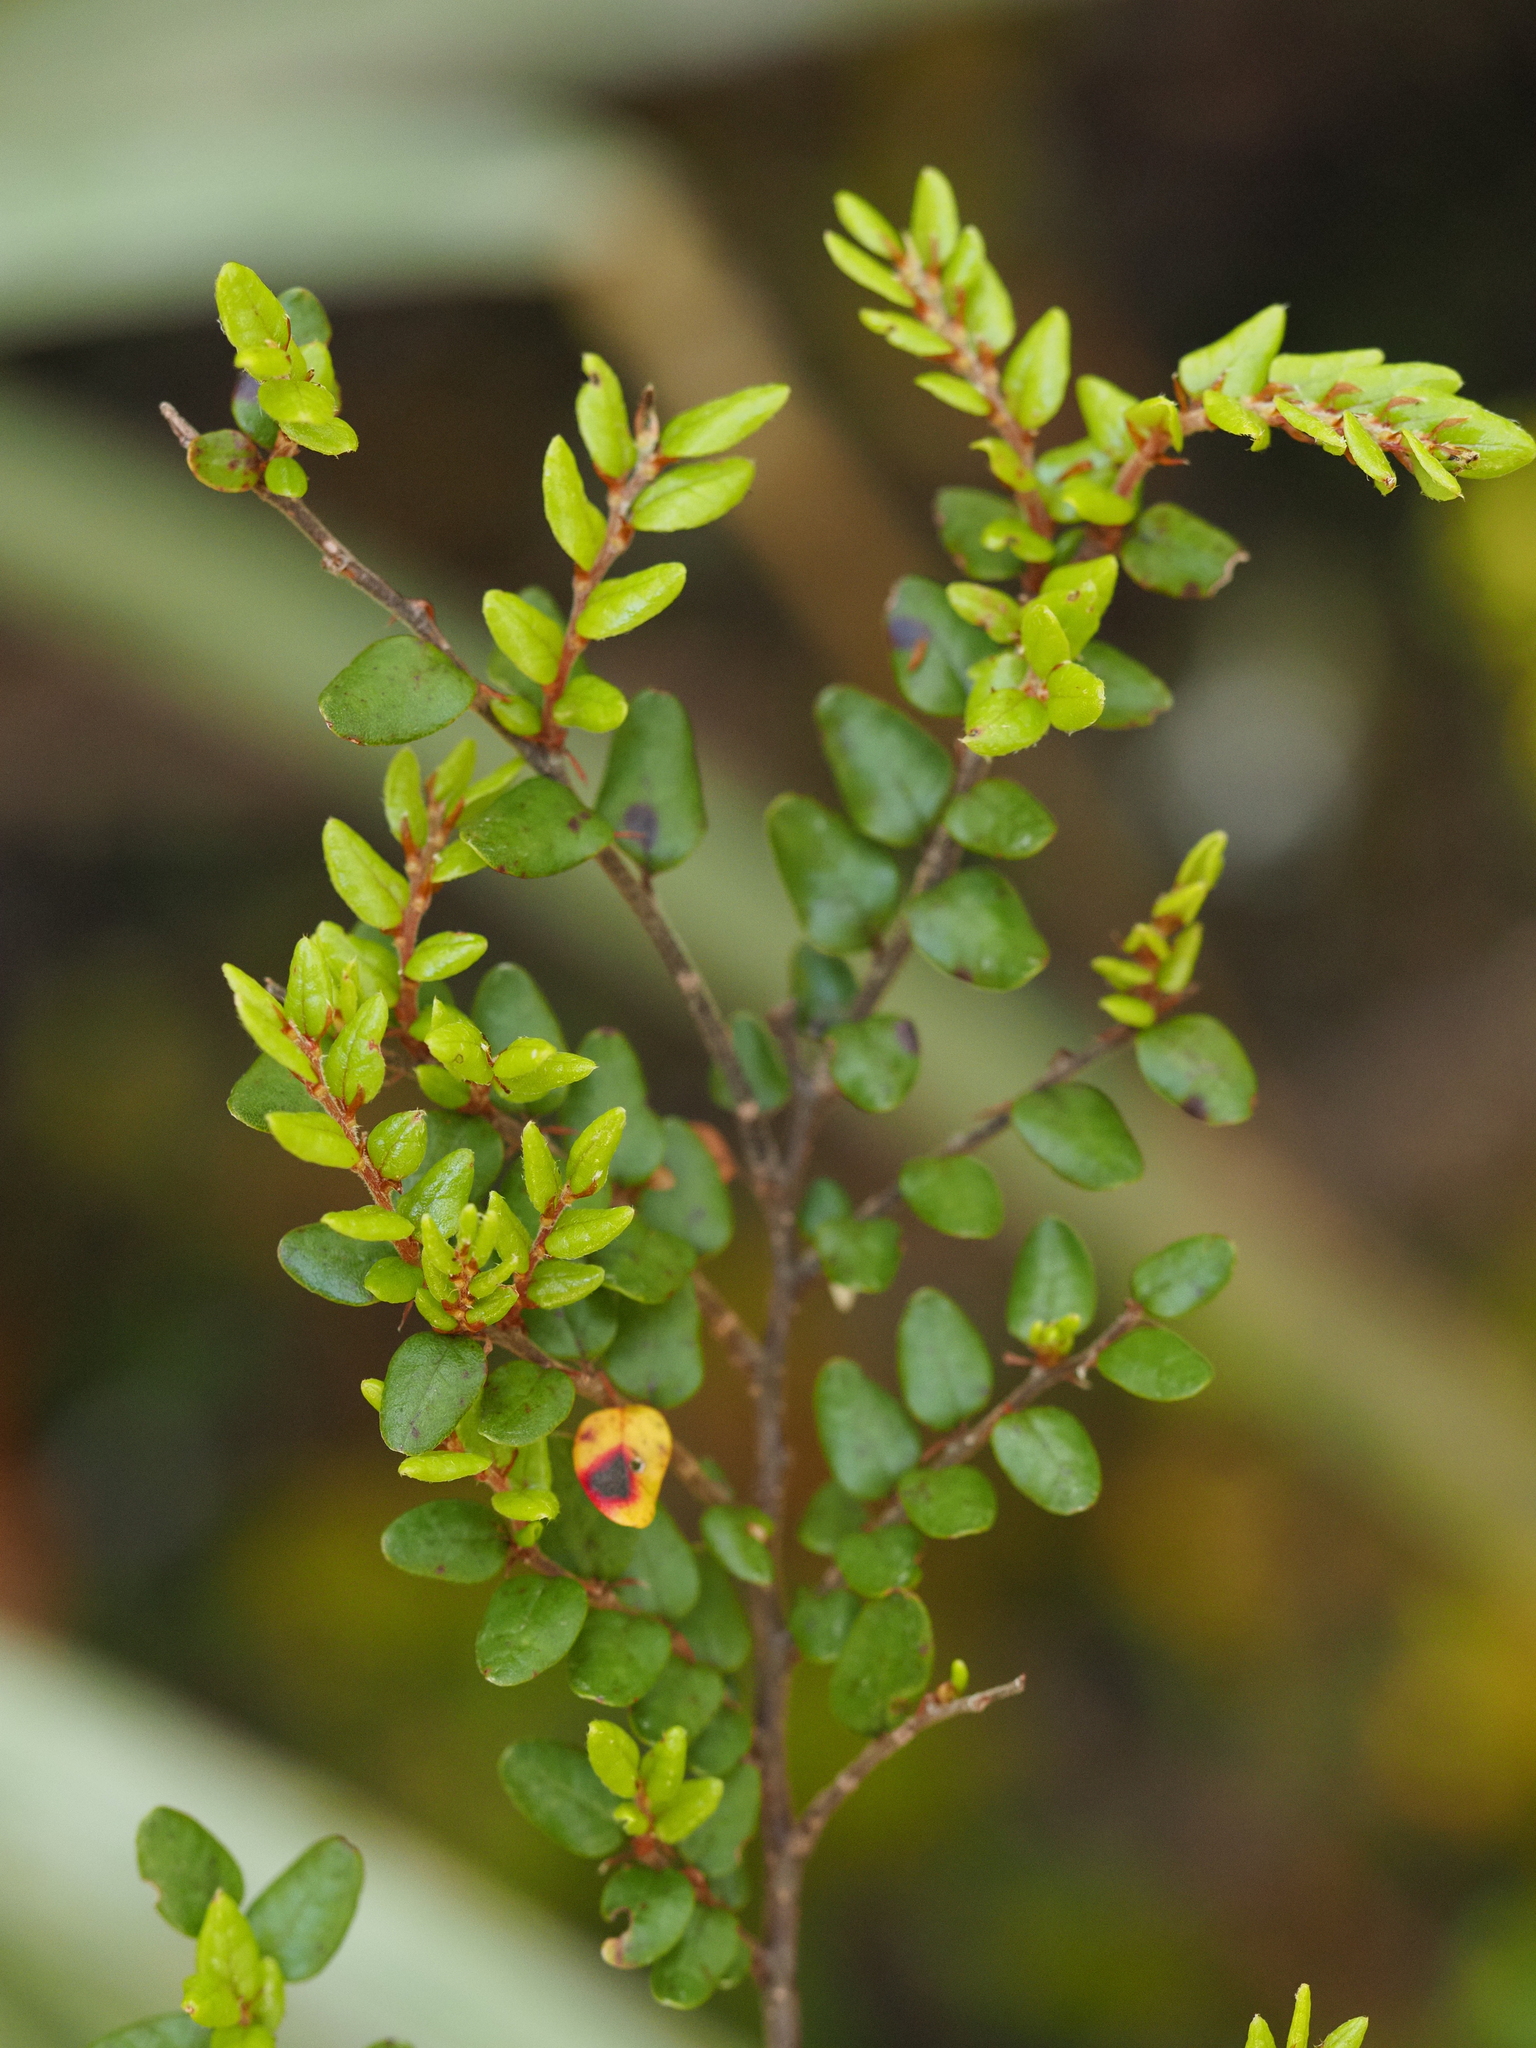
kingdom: Plantae
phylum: Tracheophyta
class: Magnoliopsida
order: Fagales
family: Nothofagaceae
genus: Nothofagus
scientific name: Nothofagus cliffortioides
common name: Mountain beech
